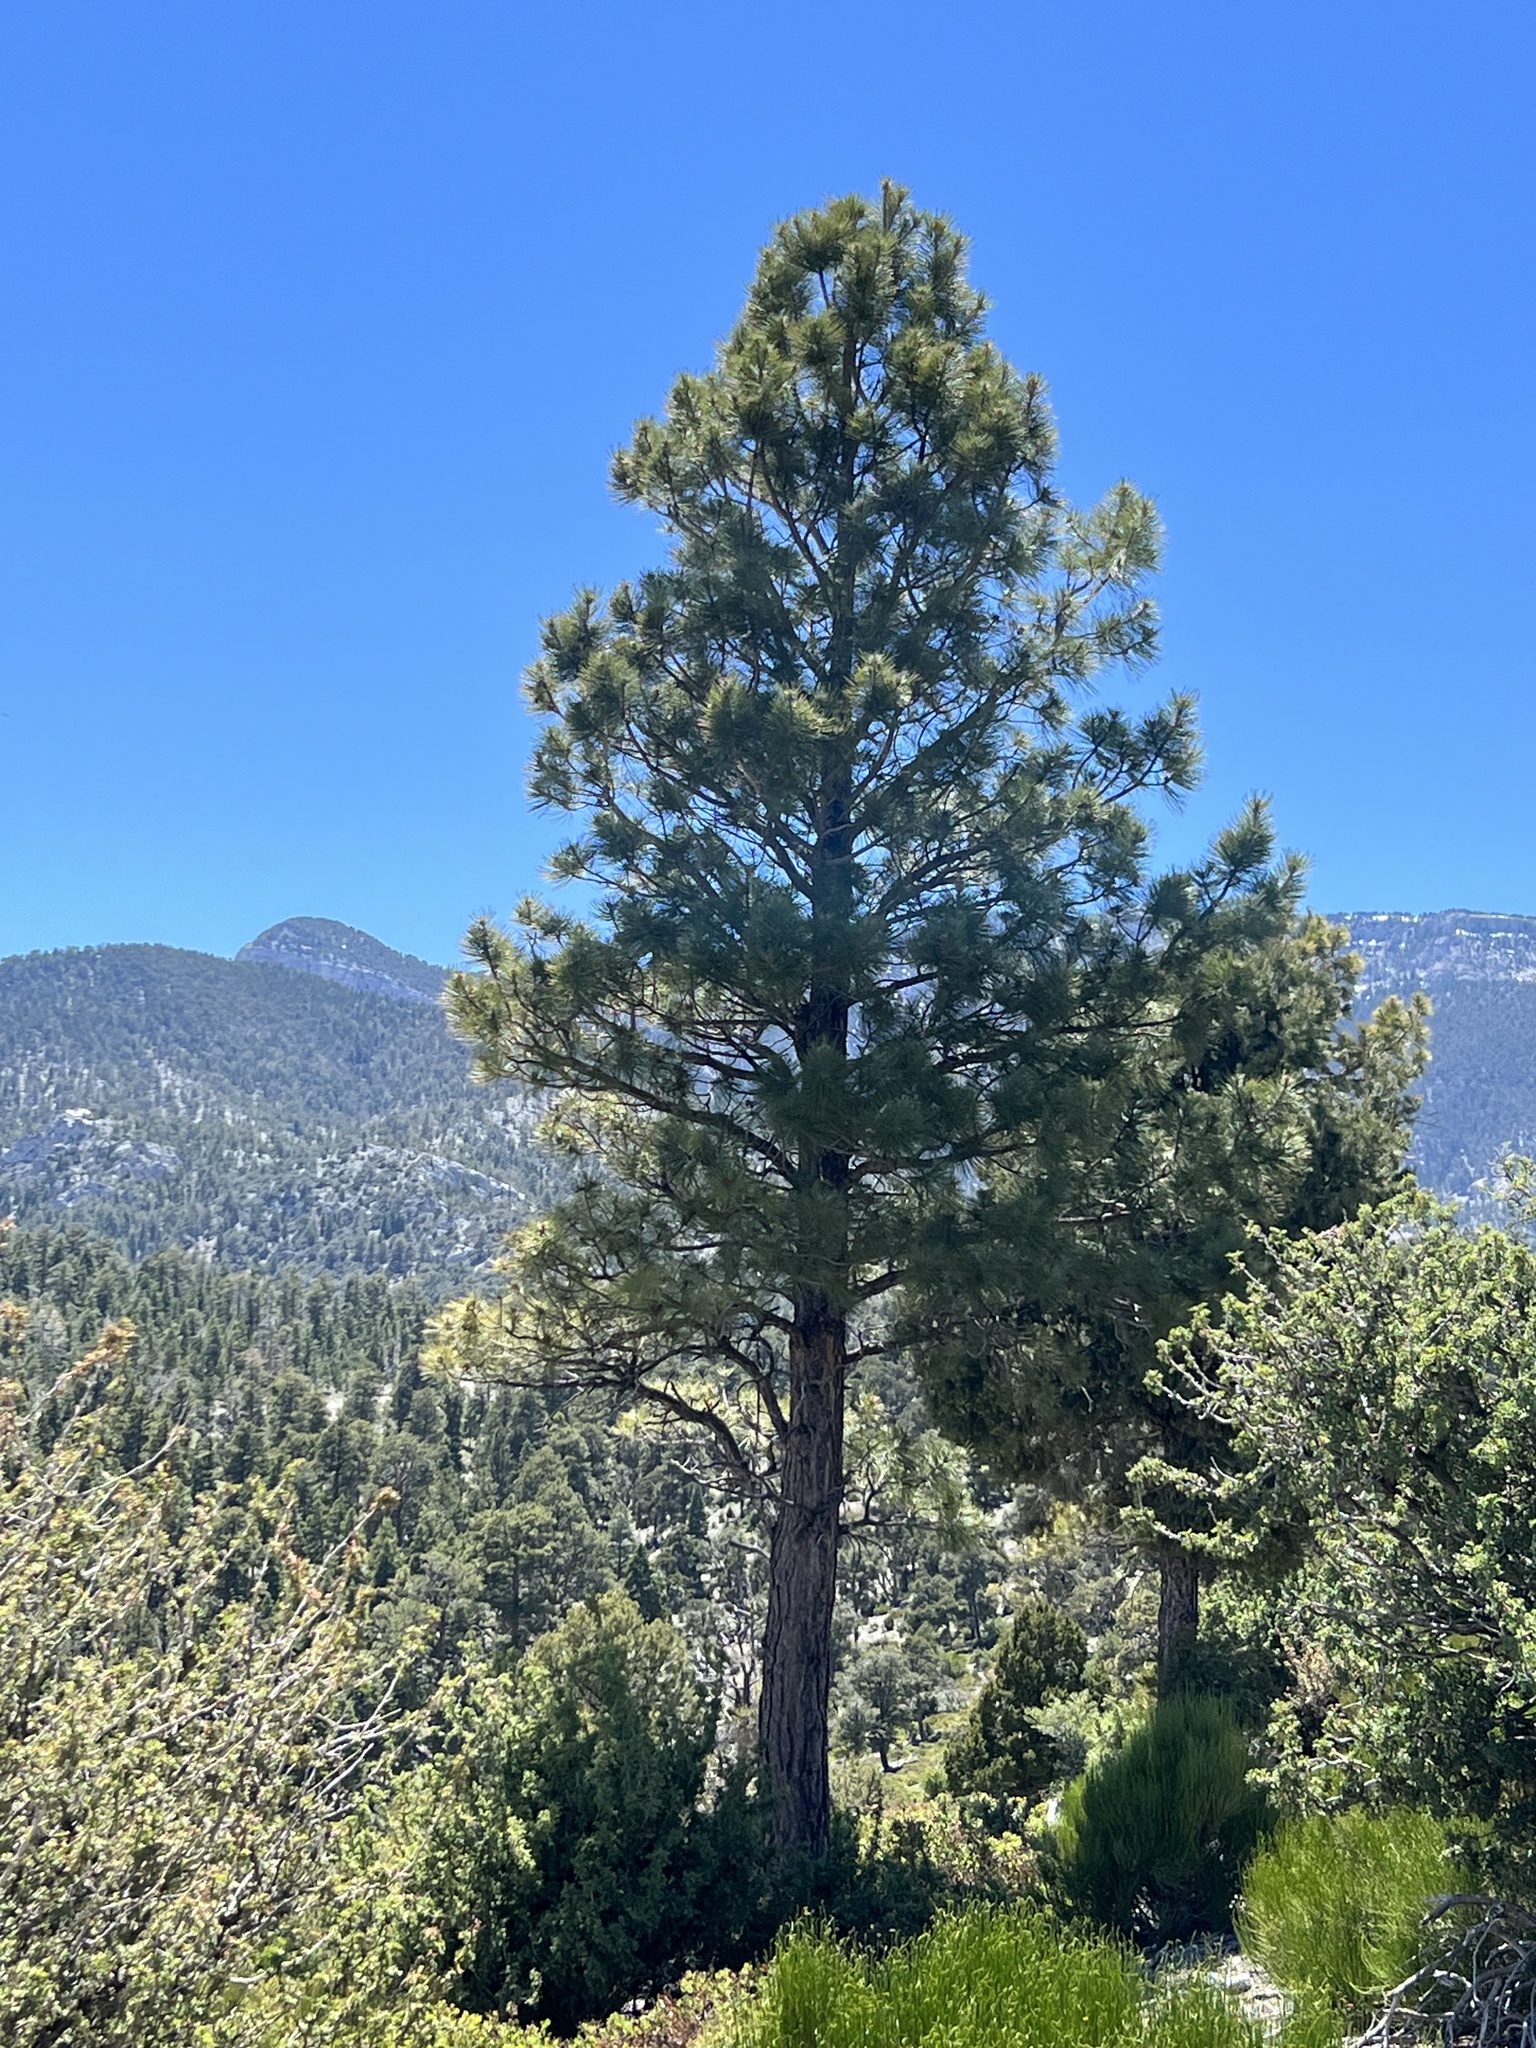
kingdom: Plantae
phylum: Tracheophyta
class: Pinopsida
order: Pinales
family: Pinaceae
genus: Pinus
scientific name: Pinus ponderosa
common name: Western yellow-pine
